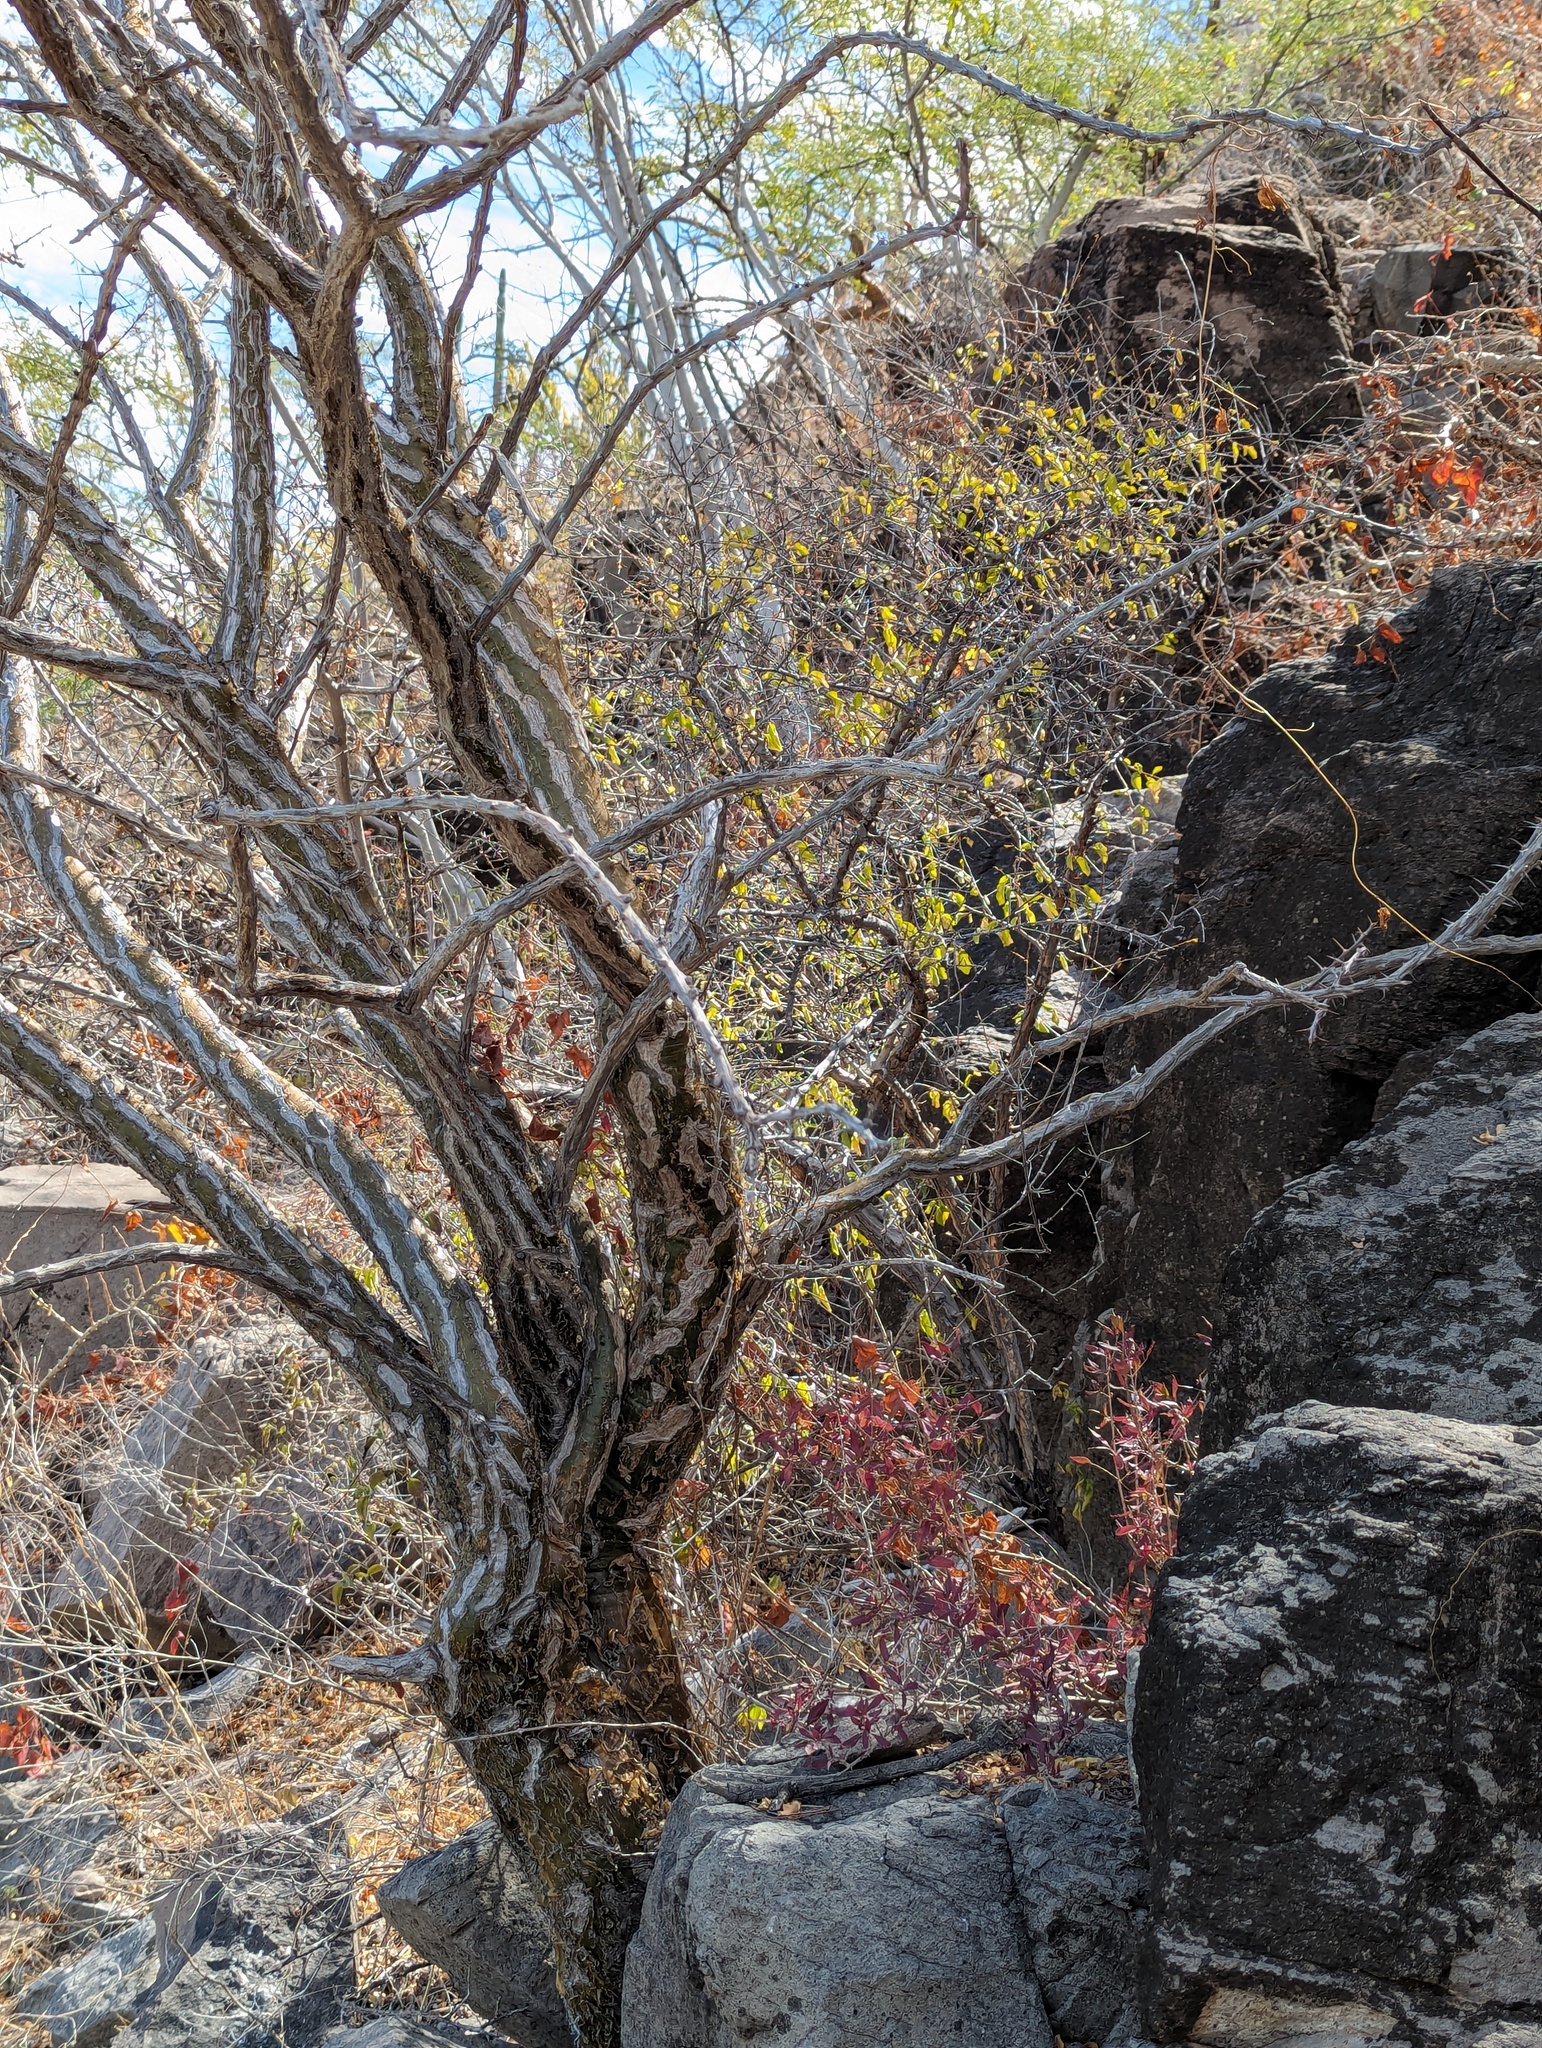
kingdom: Plantae
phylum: Tracheophyta
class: Magnoliopsida
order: Ericales
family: Fouquieriaceae
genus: Fouquieria
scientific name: Fouquieria diguetii
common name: Adam's tree
